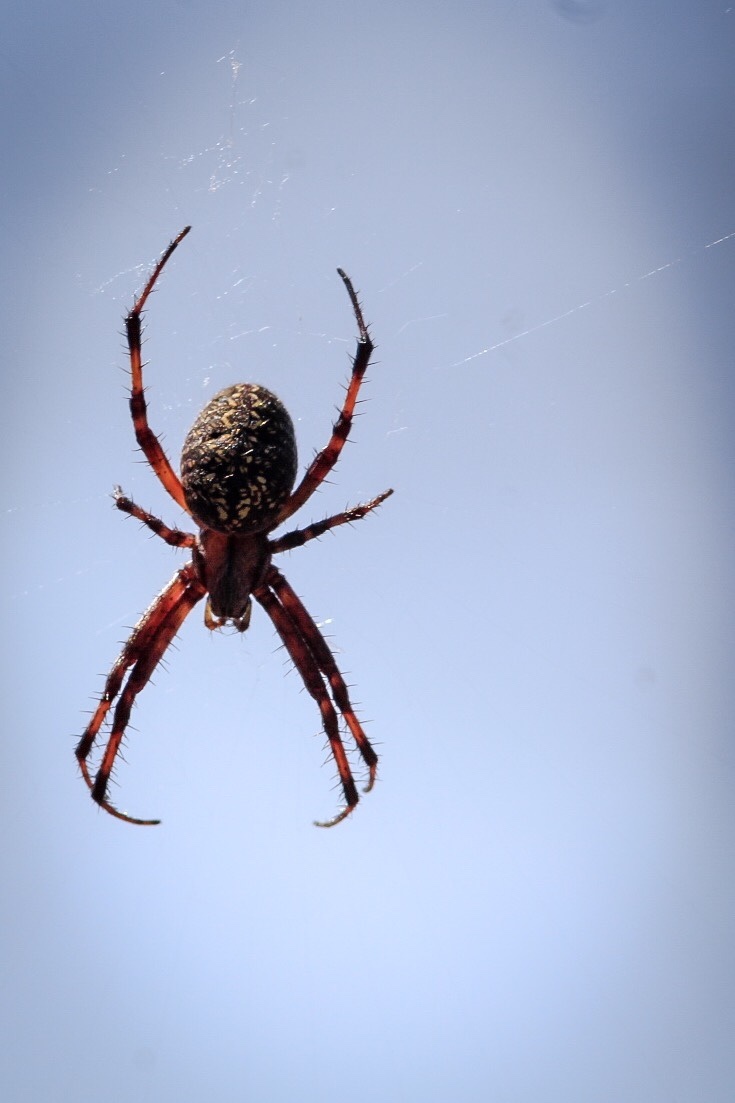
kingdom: Animalia
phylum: Arthropoda
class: Arachnida
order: Araneae
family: Araneidae
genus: Neoscona
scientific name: Neoscona oaxacensis
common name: Orb weavers
